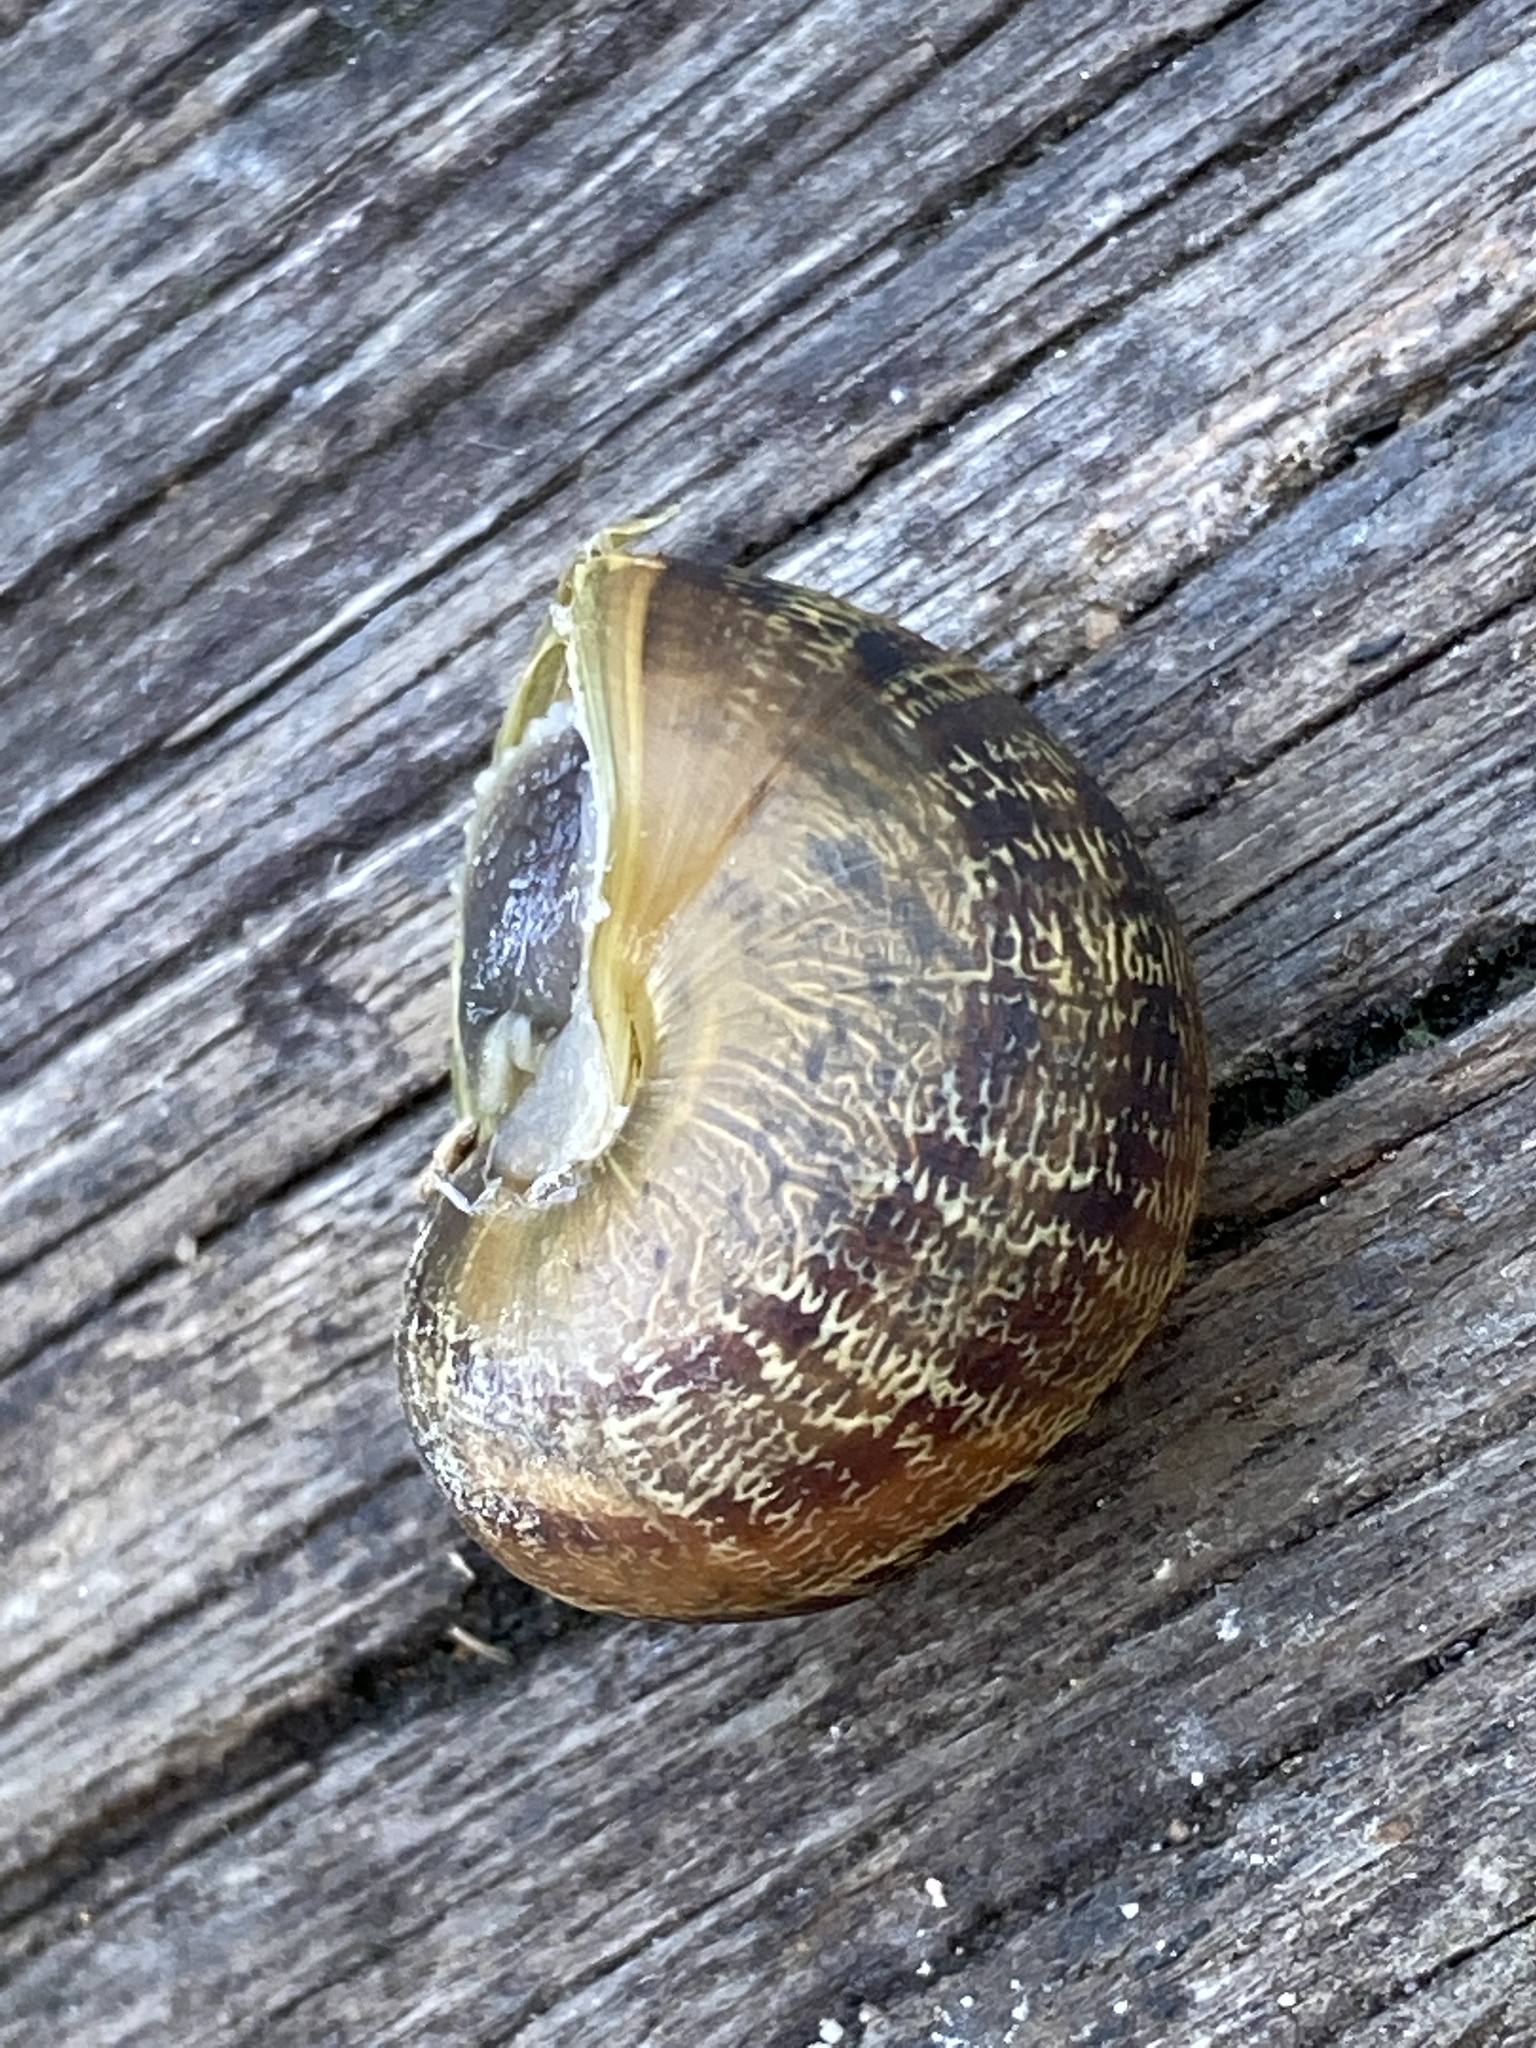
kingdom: Animalia
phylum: Mollusca
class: Gastropoda
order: Stylommatophora
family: Helicidae
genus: Cornu
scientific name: Cornu aspersum
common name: Brown garden snail
